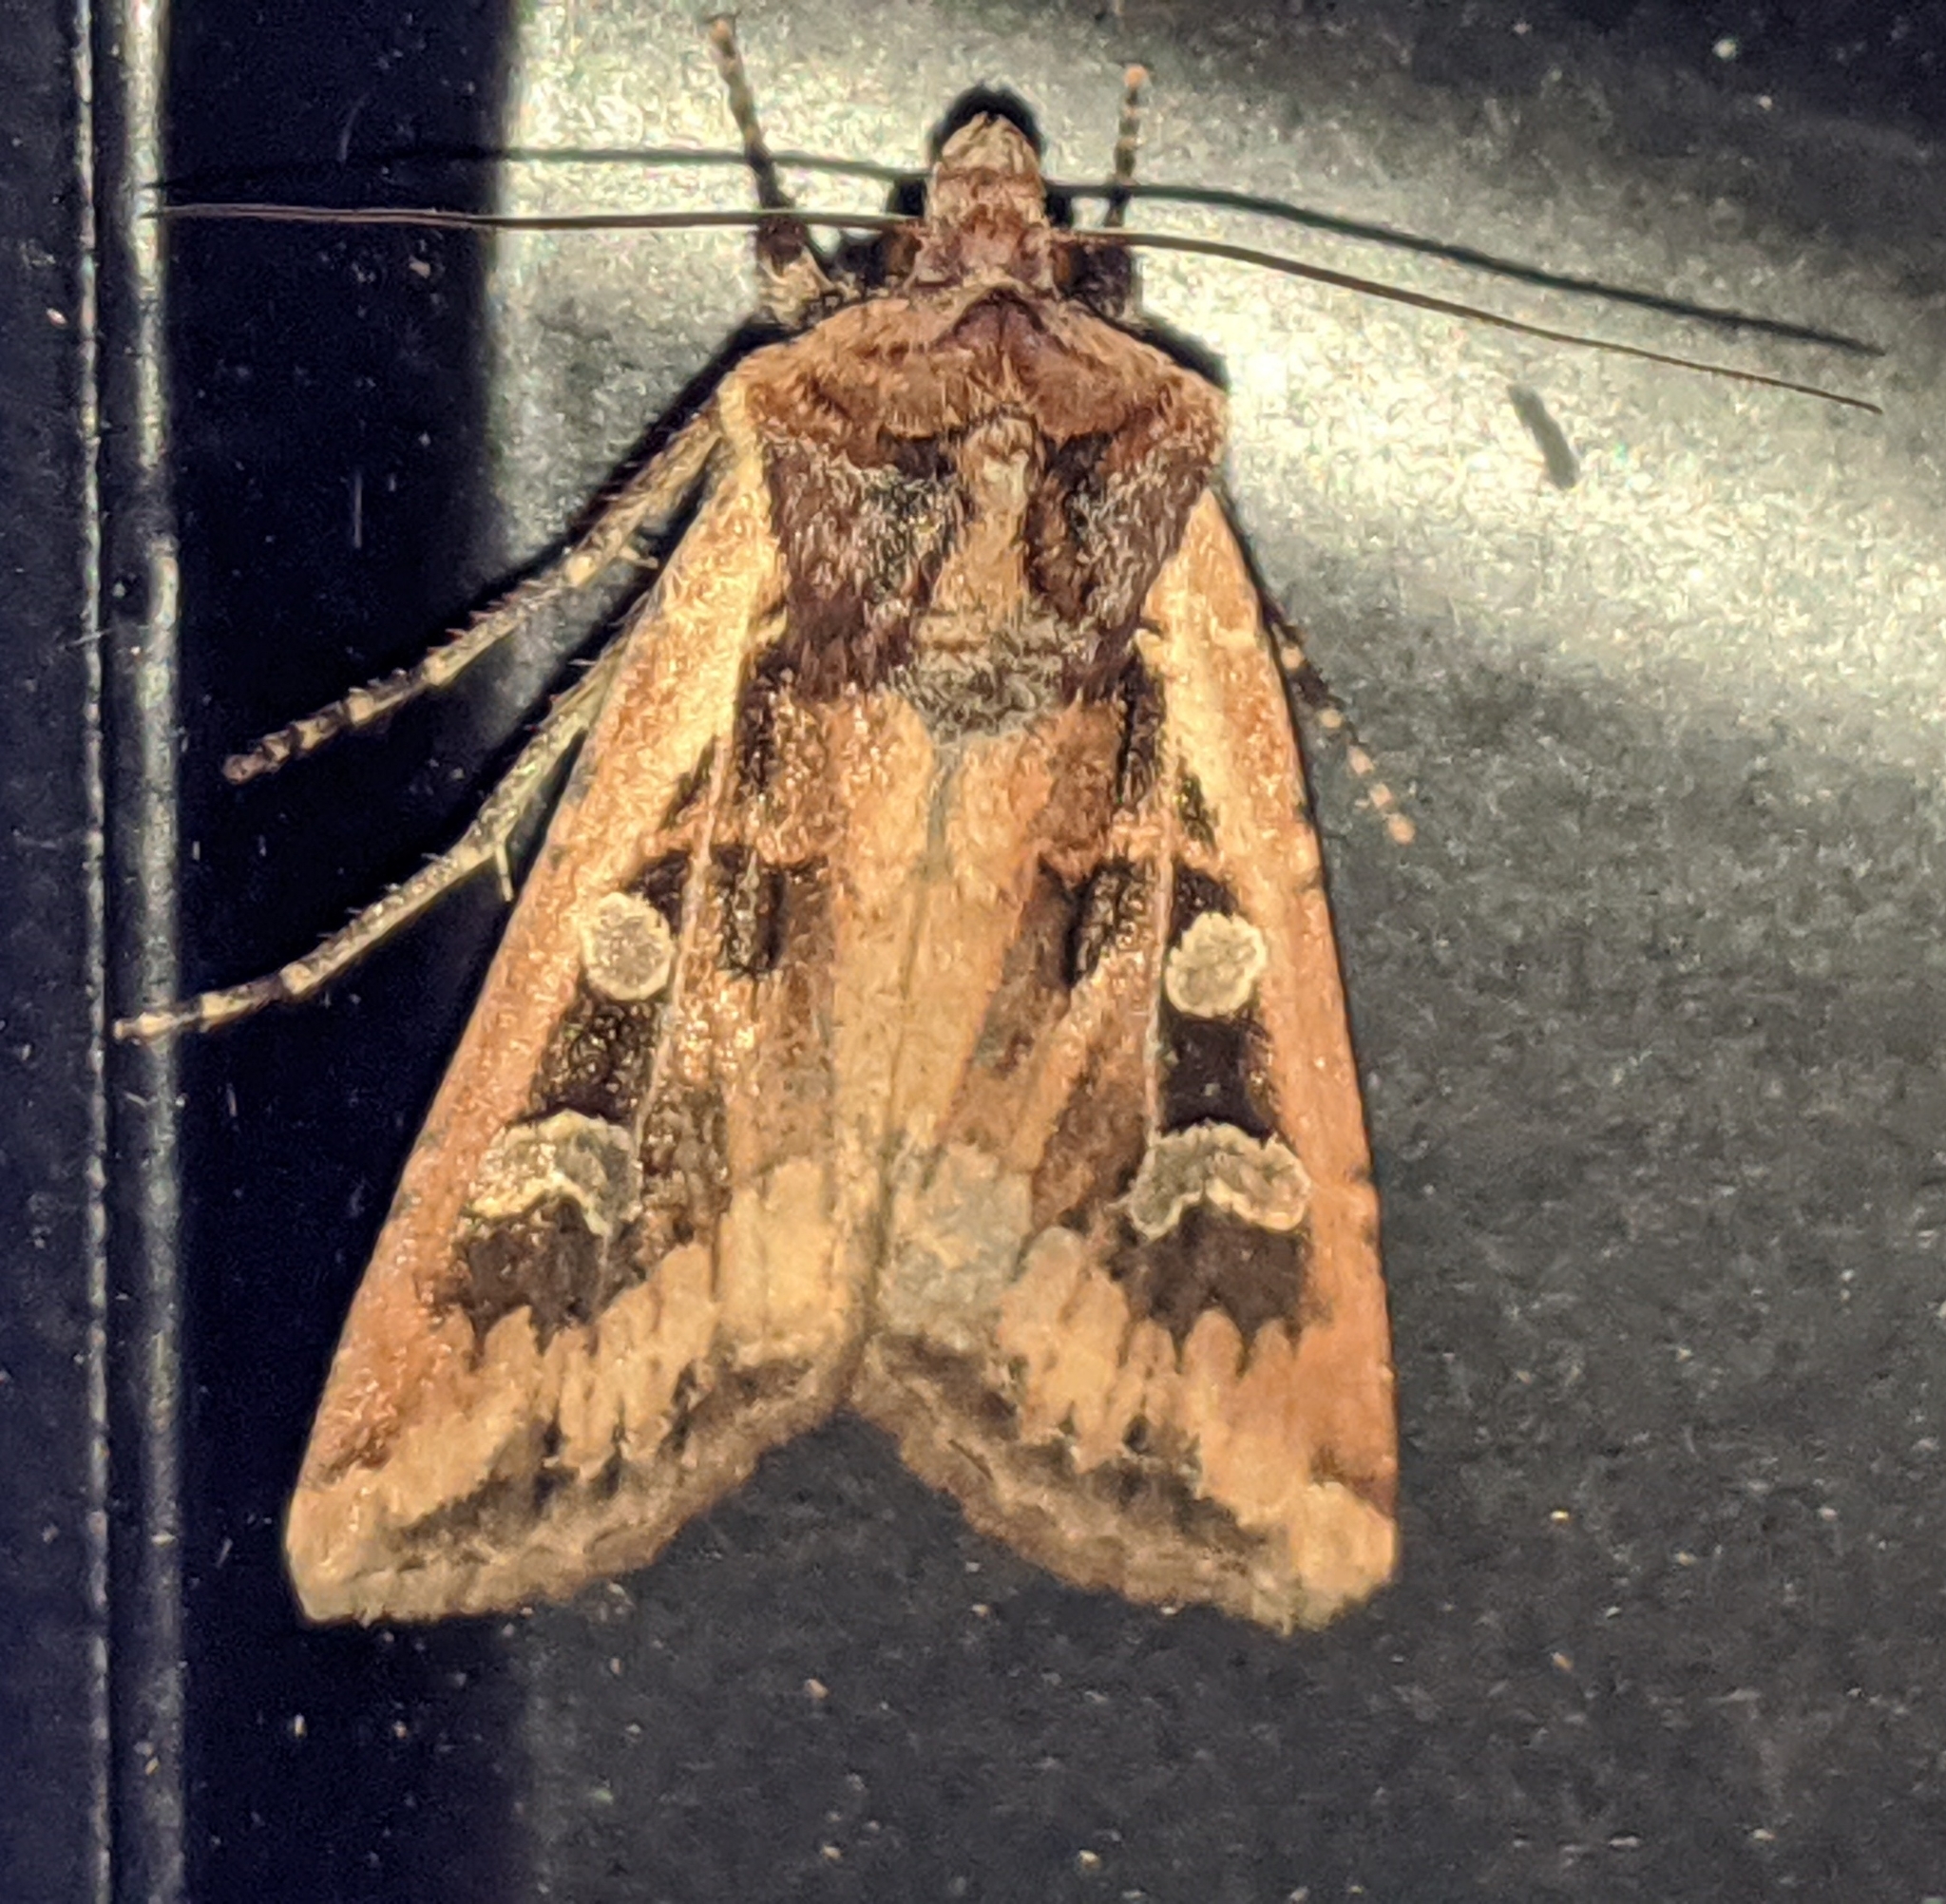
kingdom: Animalia
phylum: Arthropoda
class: Insecta
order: Lepidoptera
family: Noctuidae
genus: Euxoa
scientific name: Euxoa ochrogaster
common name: Red-backed cutworm moth
